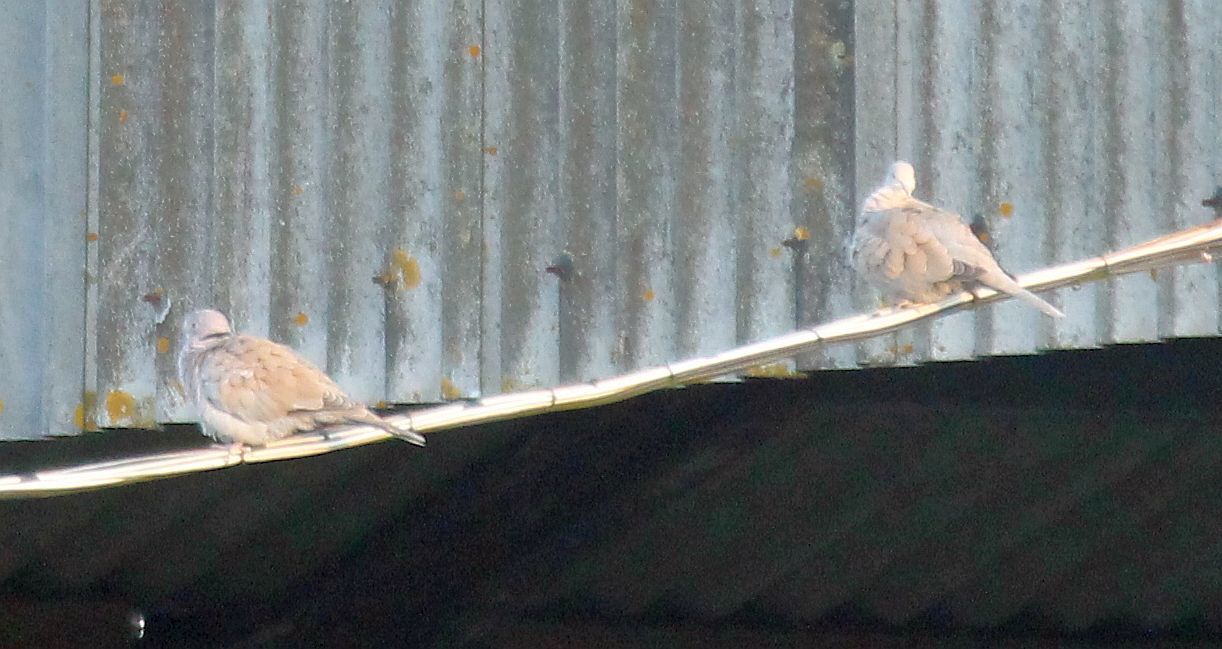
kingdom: Animalia
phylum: Chordata
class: Aves
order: Columbiformes
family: Columbidae
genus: Streptopelia
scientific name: Streptopelia decaocto
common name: Eurasian collared dove
